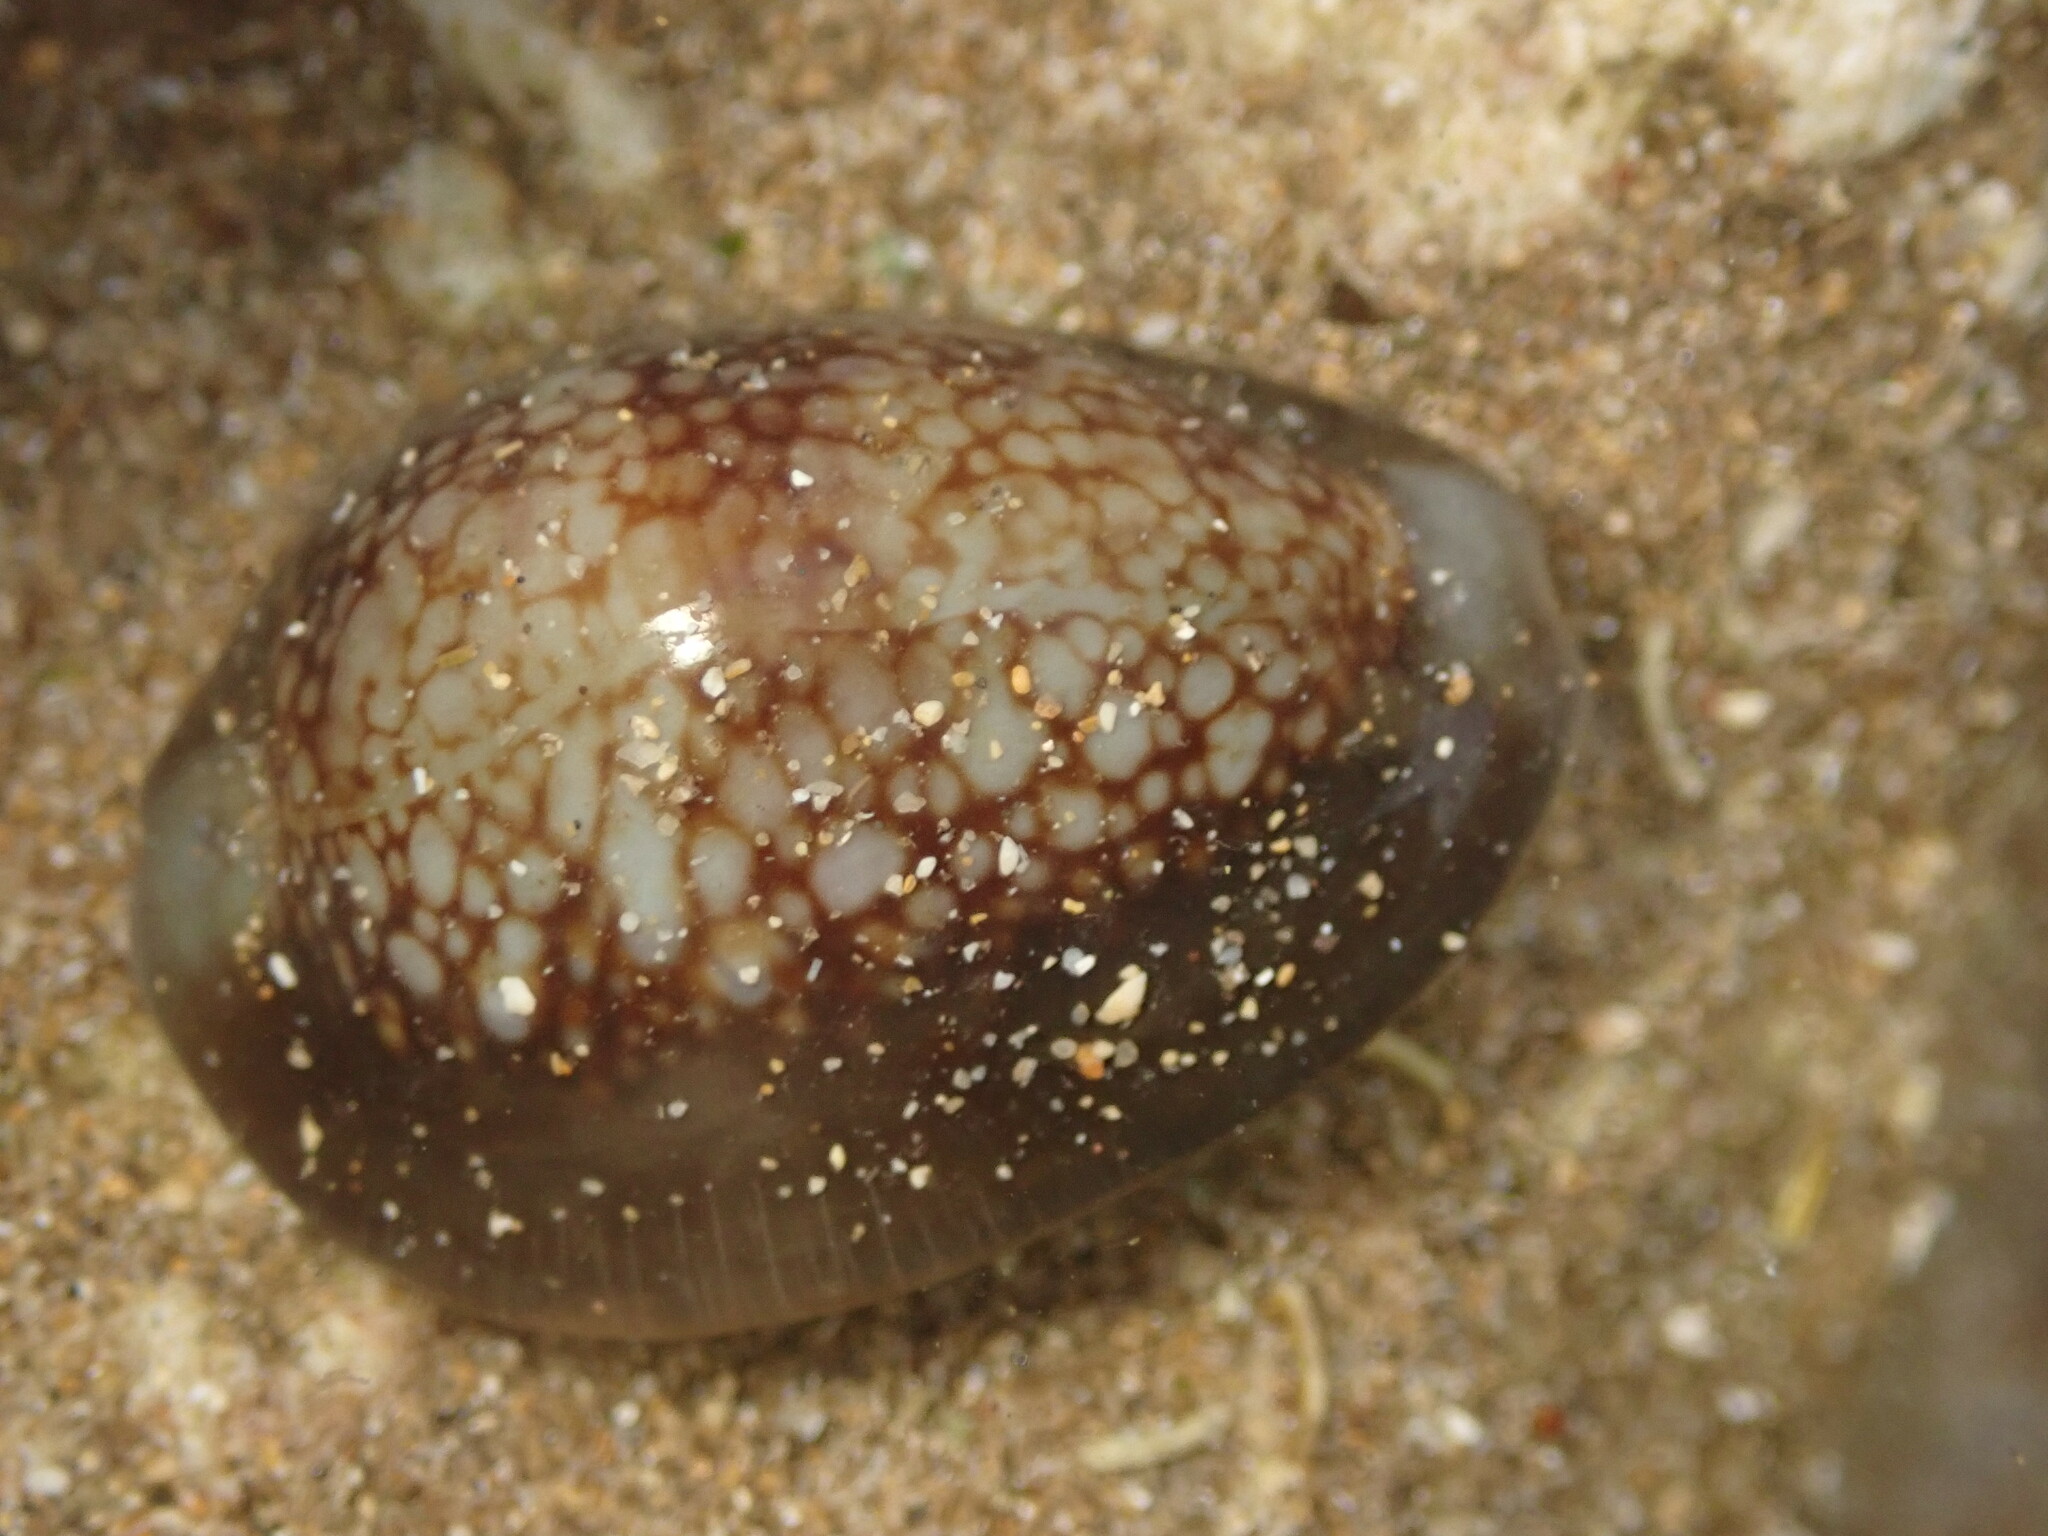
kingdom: Animalia
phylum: Mollusca
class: Gastropoda
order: Littorinimorpha
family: Cypraeidae
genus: Monetaria
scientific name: Monetaria caputophidii
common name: Snake's head cowry
